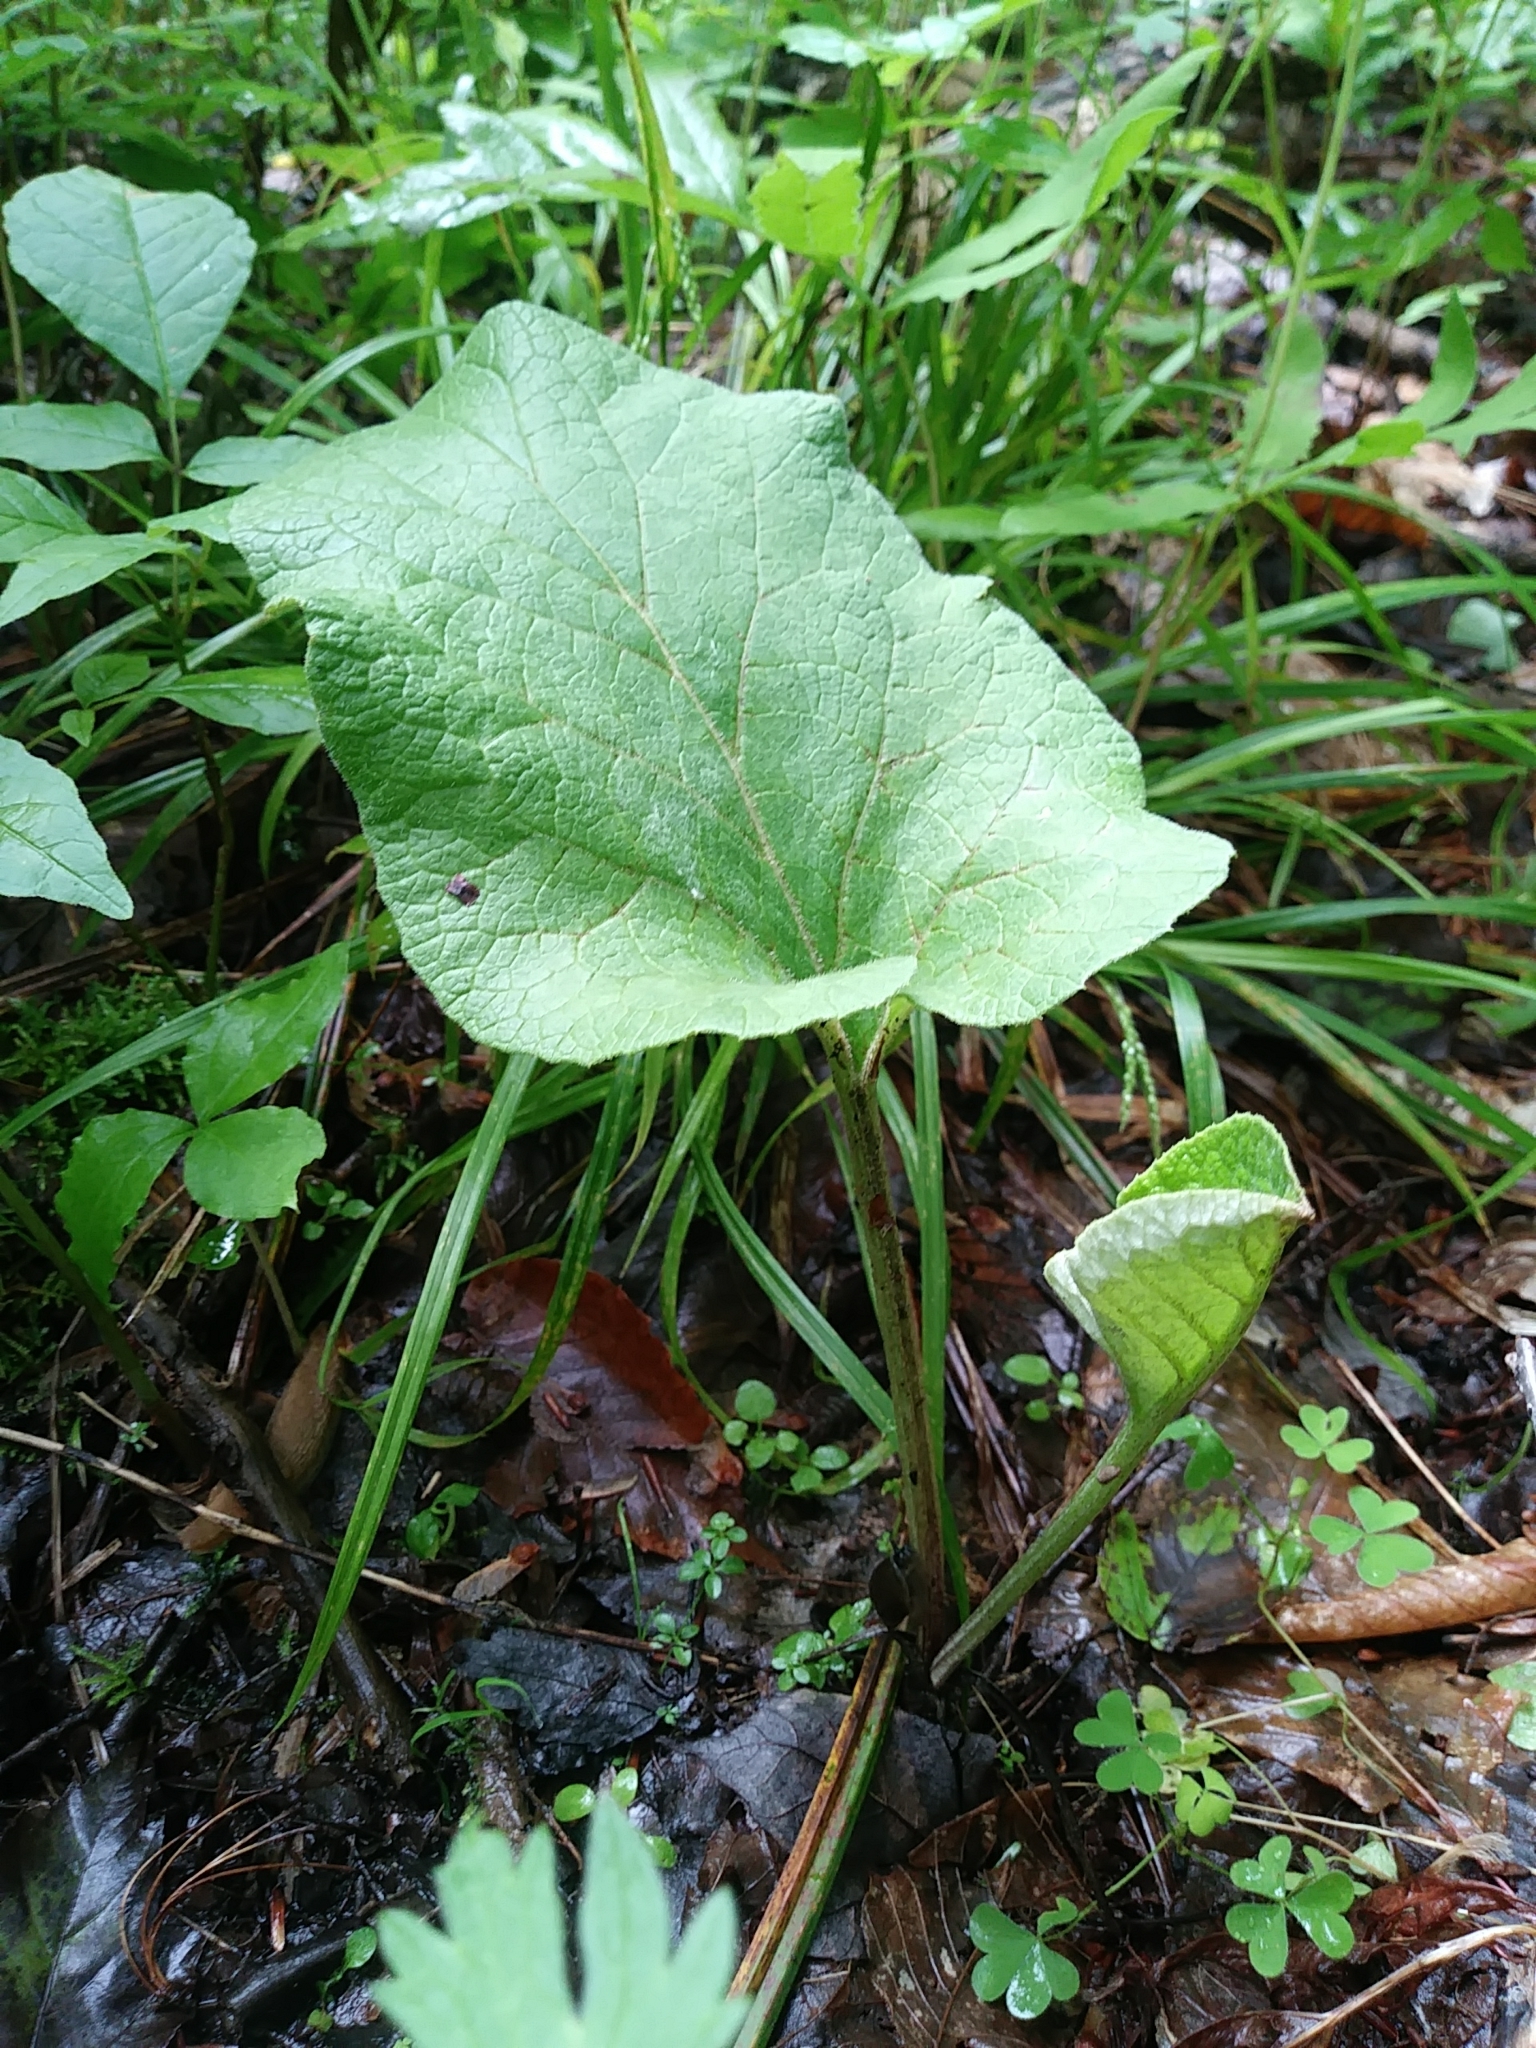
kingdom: Plantae
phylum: Tracheophyta
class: Magnoliopsida
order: Asterales
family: Asteraceae
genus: Arctium
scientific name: Arctium
